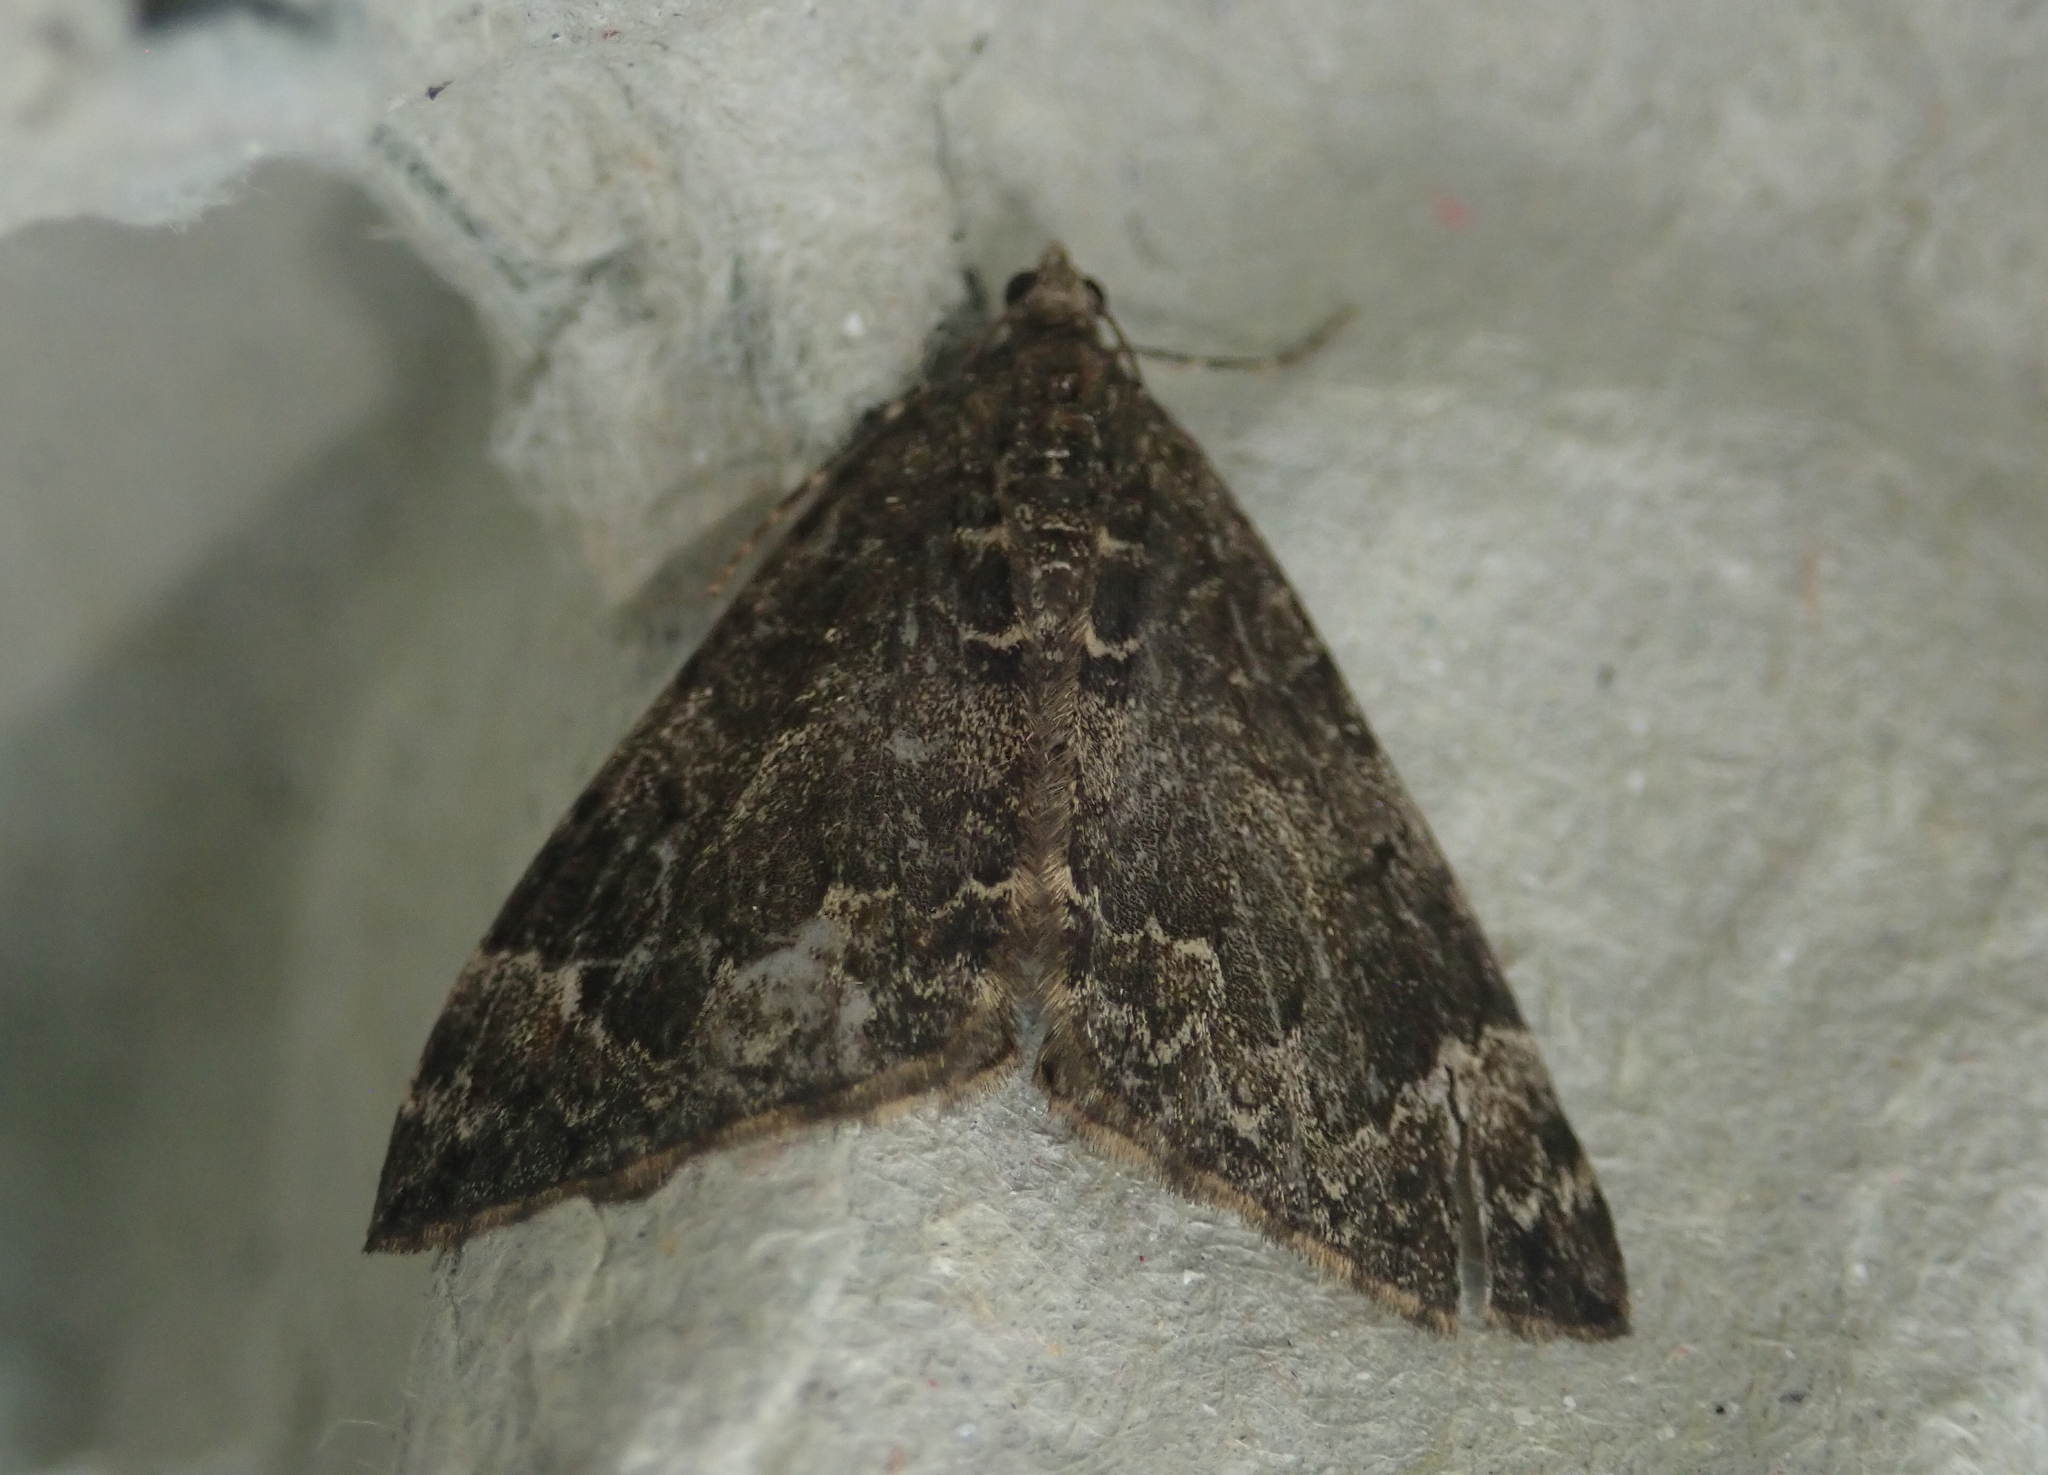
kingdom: Animalia
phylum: Arthropoda
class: Insecta
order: Lepidoptera
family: Geometridae
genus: Dysstroma
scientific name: Dysstroma truncata
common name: Common marbled carpet
